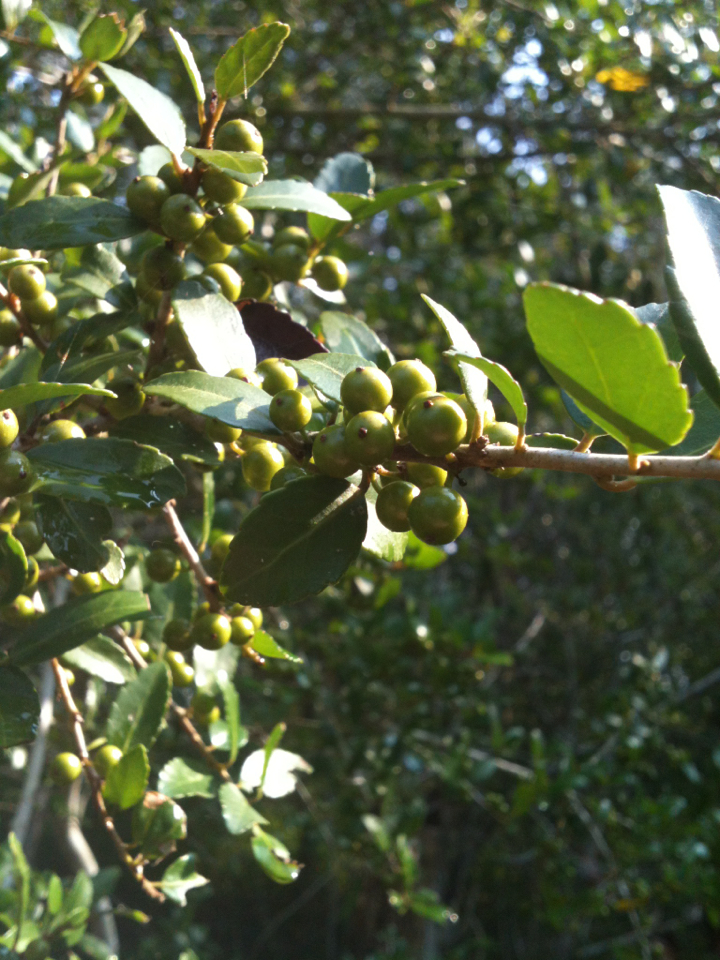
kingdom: Plantae
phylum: Tracheophyta
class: Magnoliopsida
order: Aquifoliales
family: Aquifoliaceae
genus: Ilex
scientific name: Ilex vomitoria
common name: Yaupon holly
